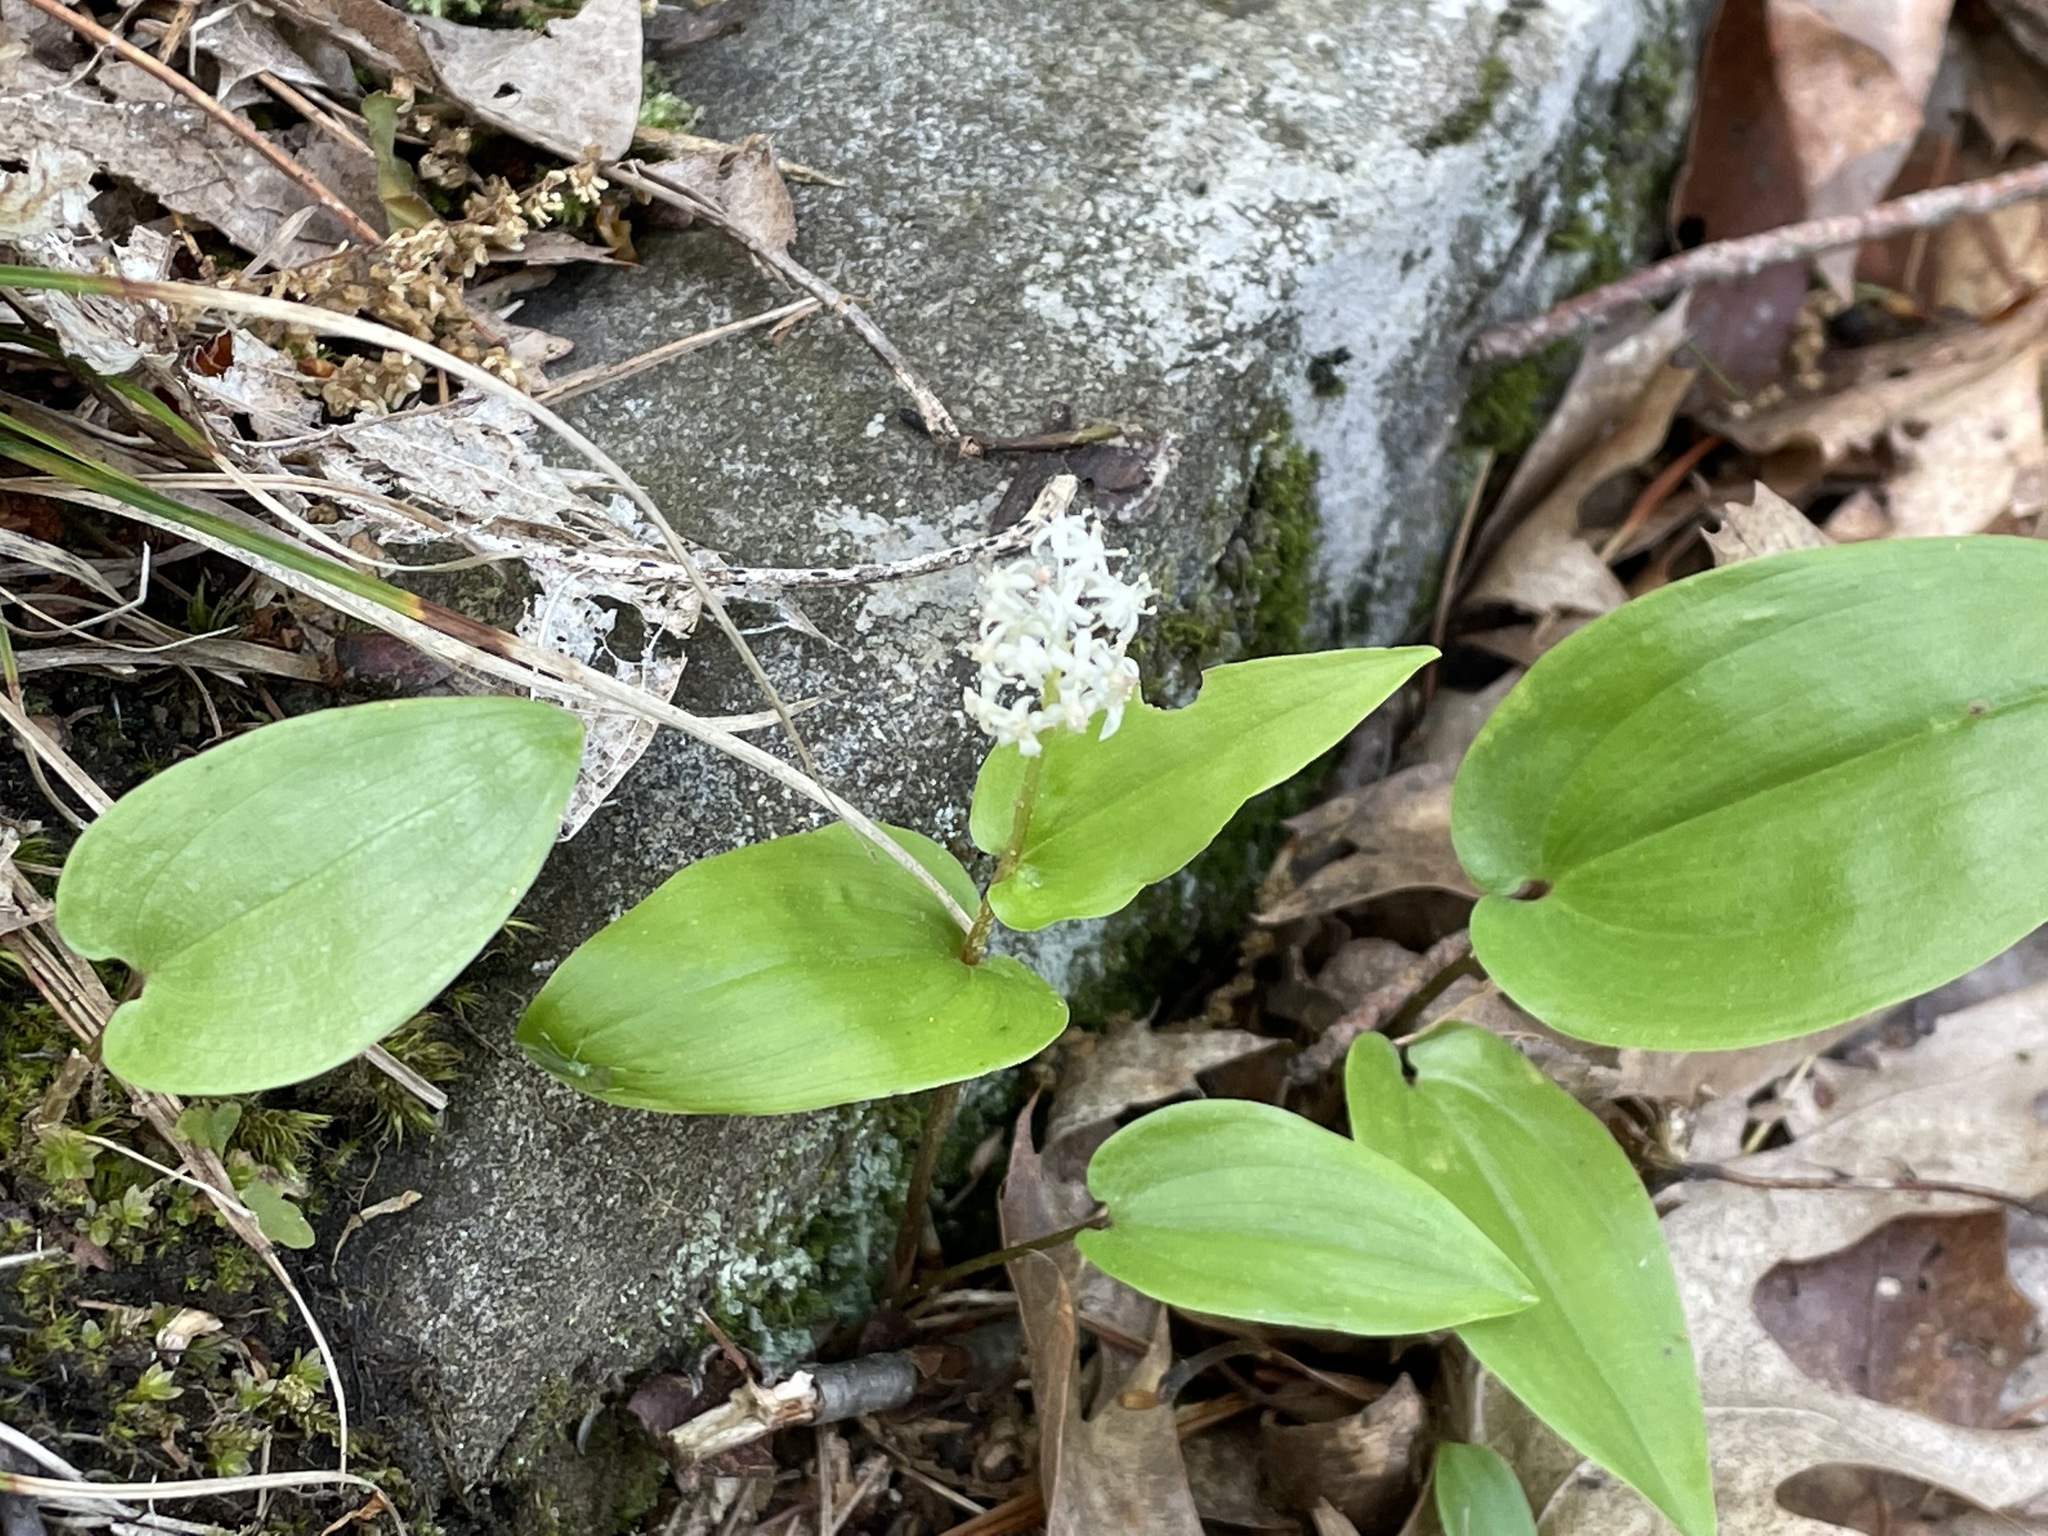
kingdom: Plantae
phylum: Tracheophyta
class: Liliopsida
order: Asparagales
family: Asparagaceae
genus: Maianthemum
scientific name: Maianthemum canadense
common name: False lily-of-the-valley
